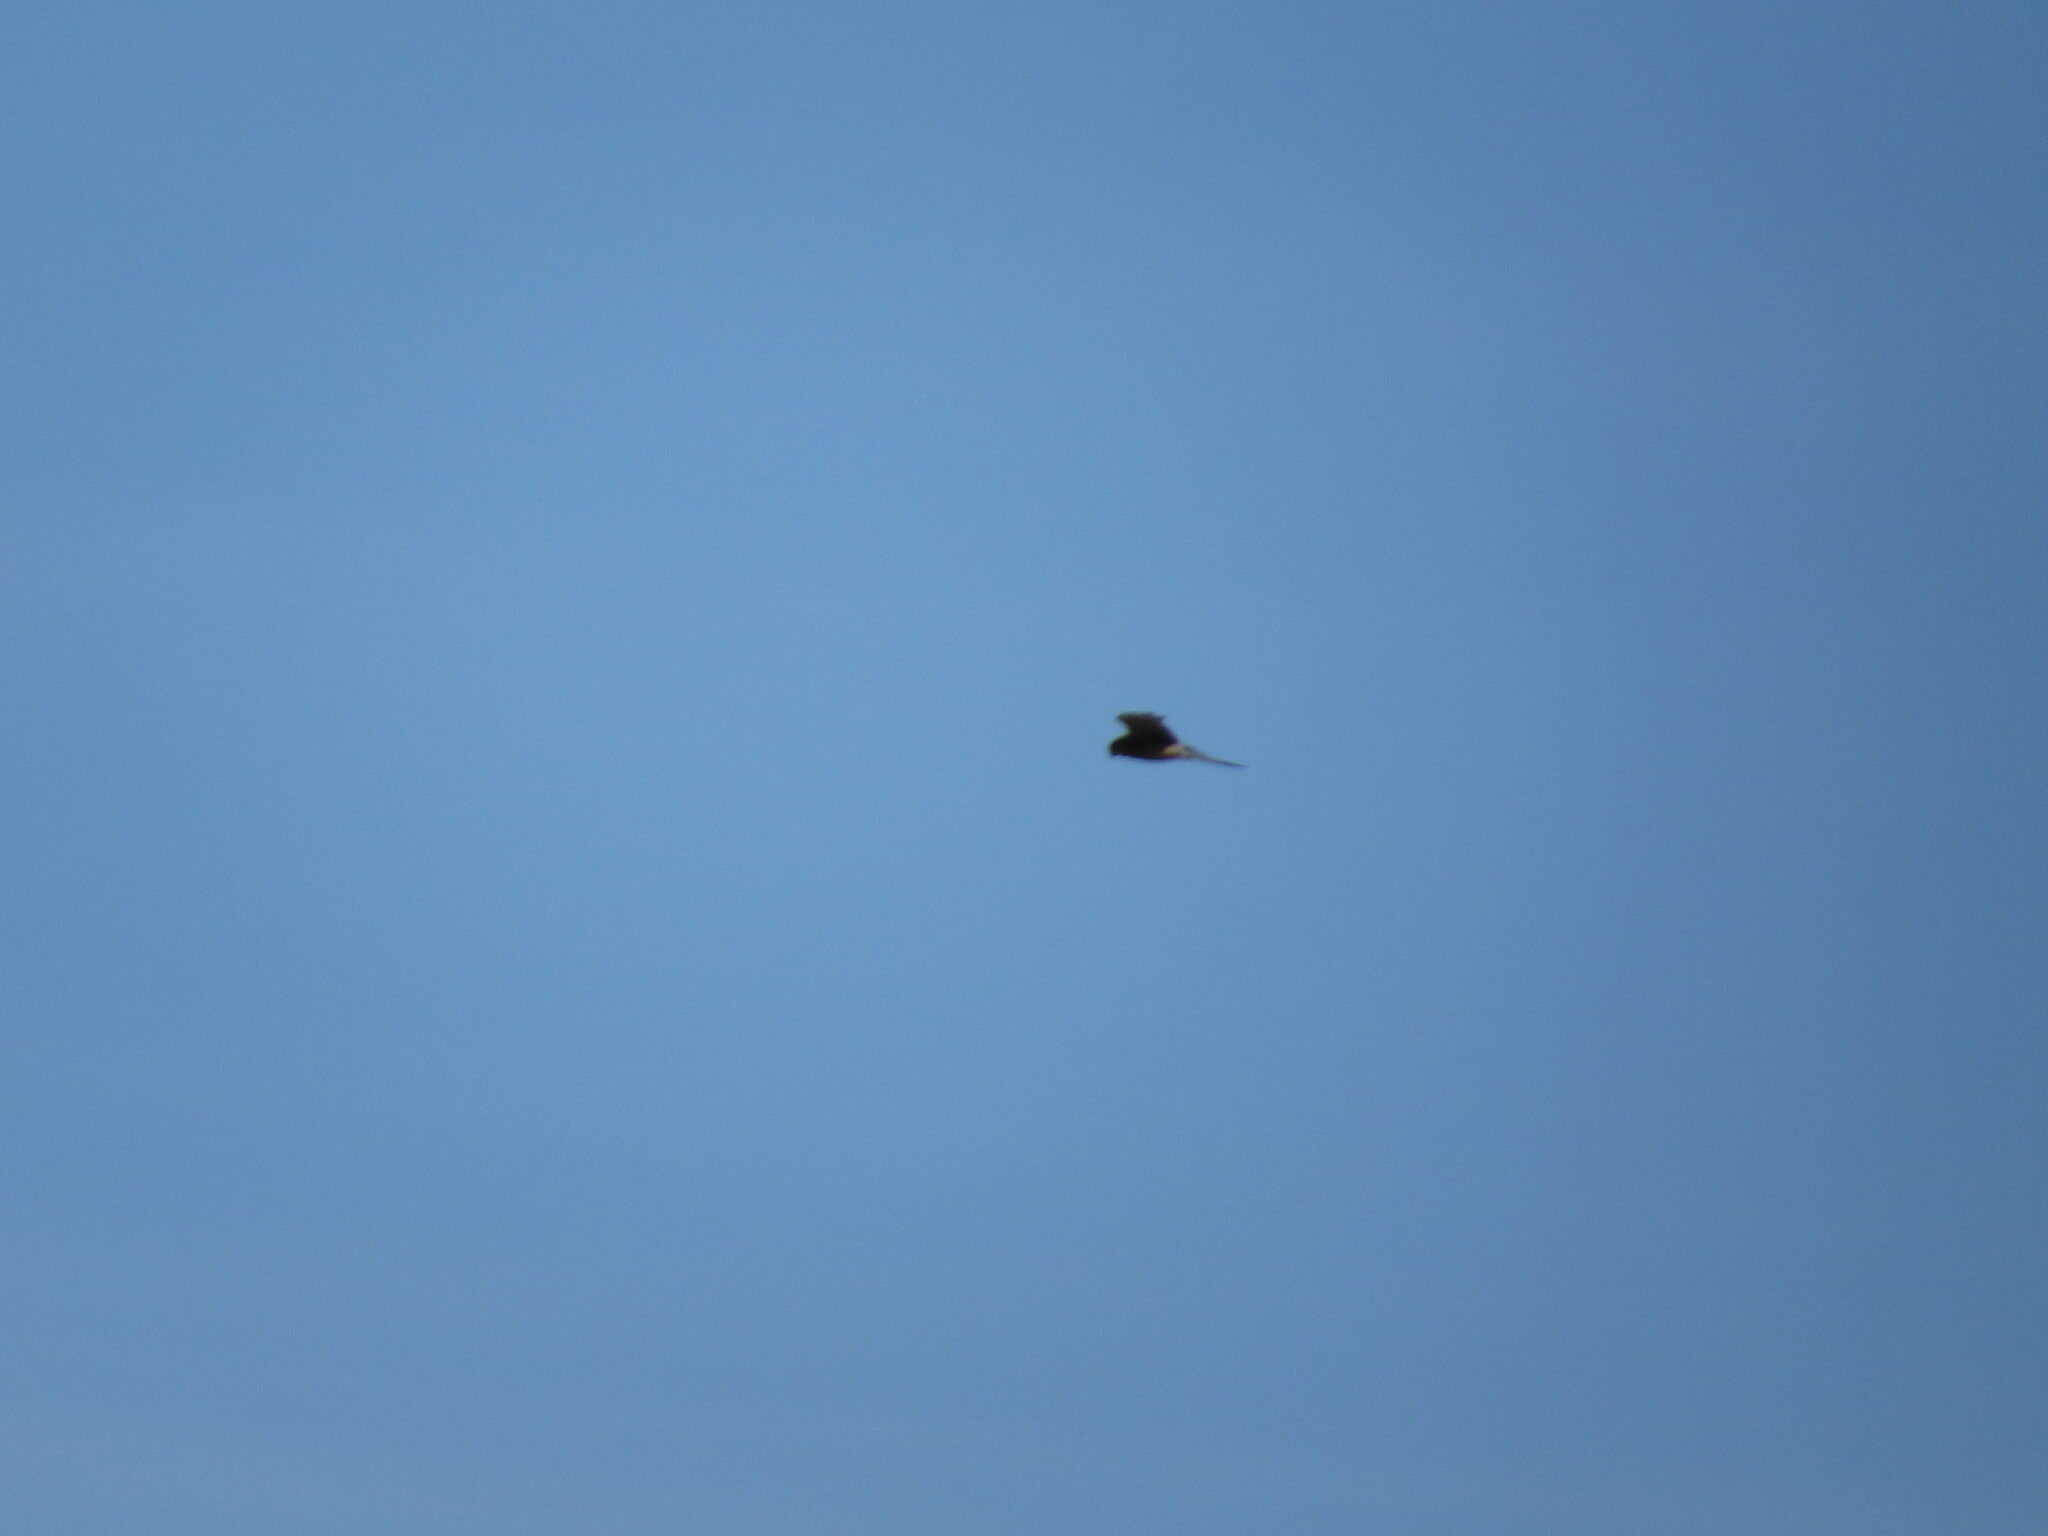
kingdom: Animalia
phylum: Chordata
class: Aves
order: Falconiformes
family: Falconidae
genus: Falco
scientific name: Falco tinnunculus
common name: Common kestrel
